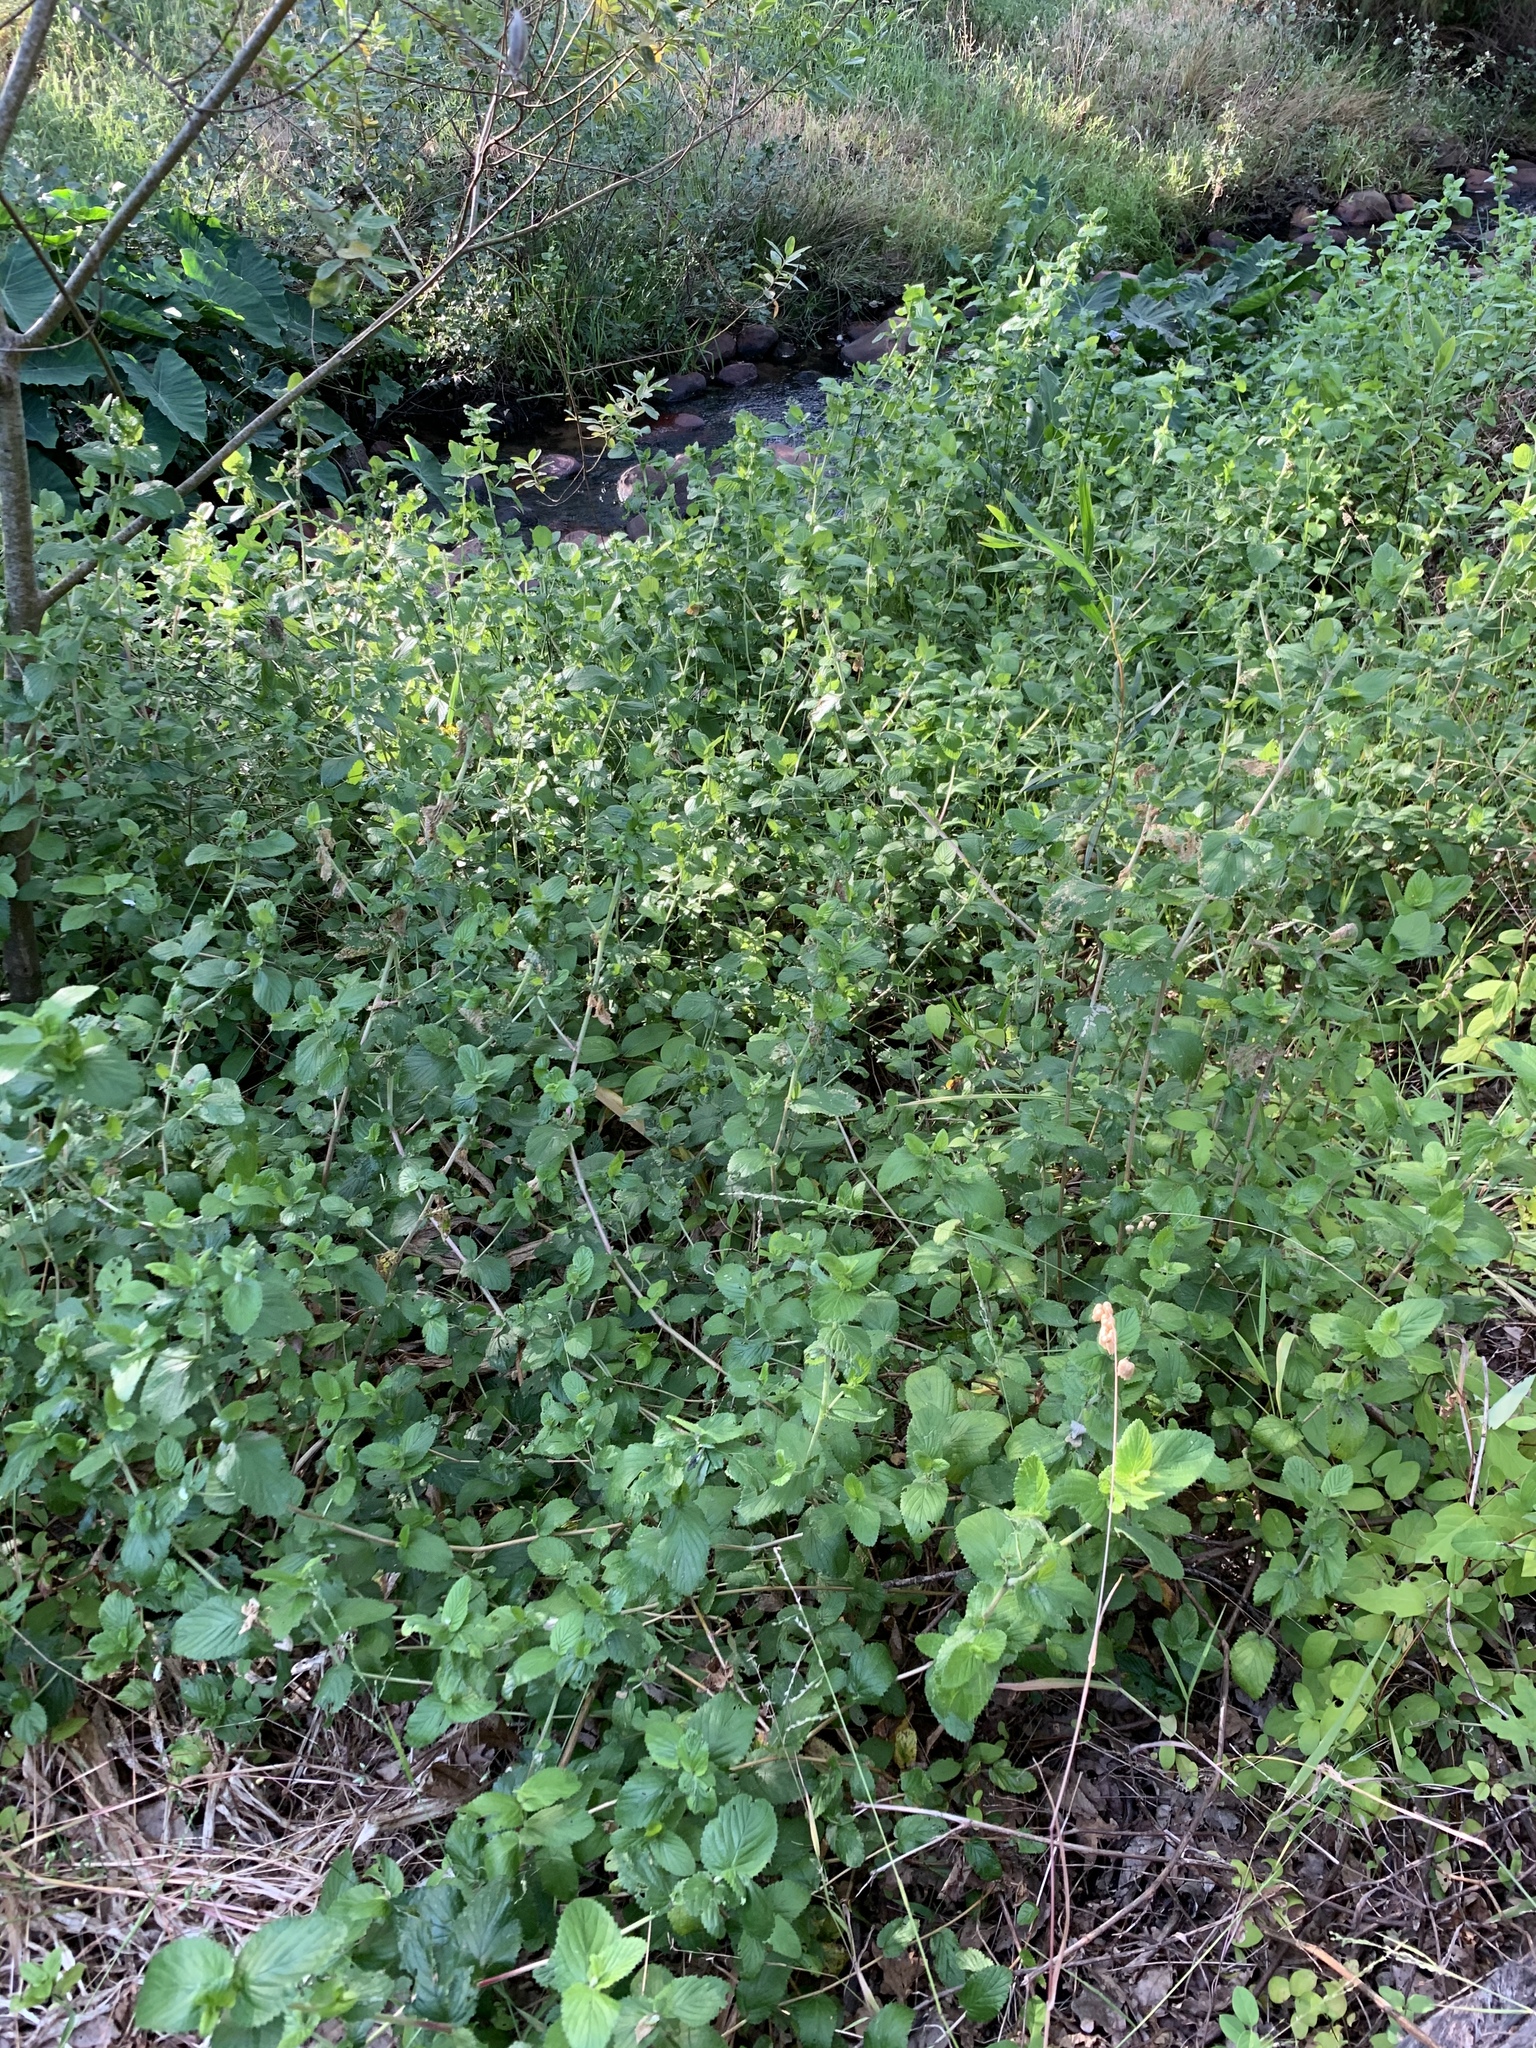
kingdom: Plantae
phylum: Tracheophyta
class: Magnoliopsida
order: Rosales
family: Rosaceae
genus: Cliffortia
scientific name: Cliffortia odorata
